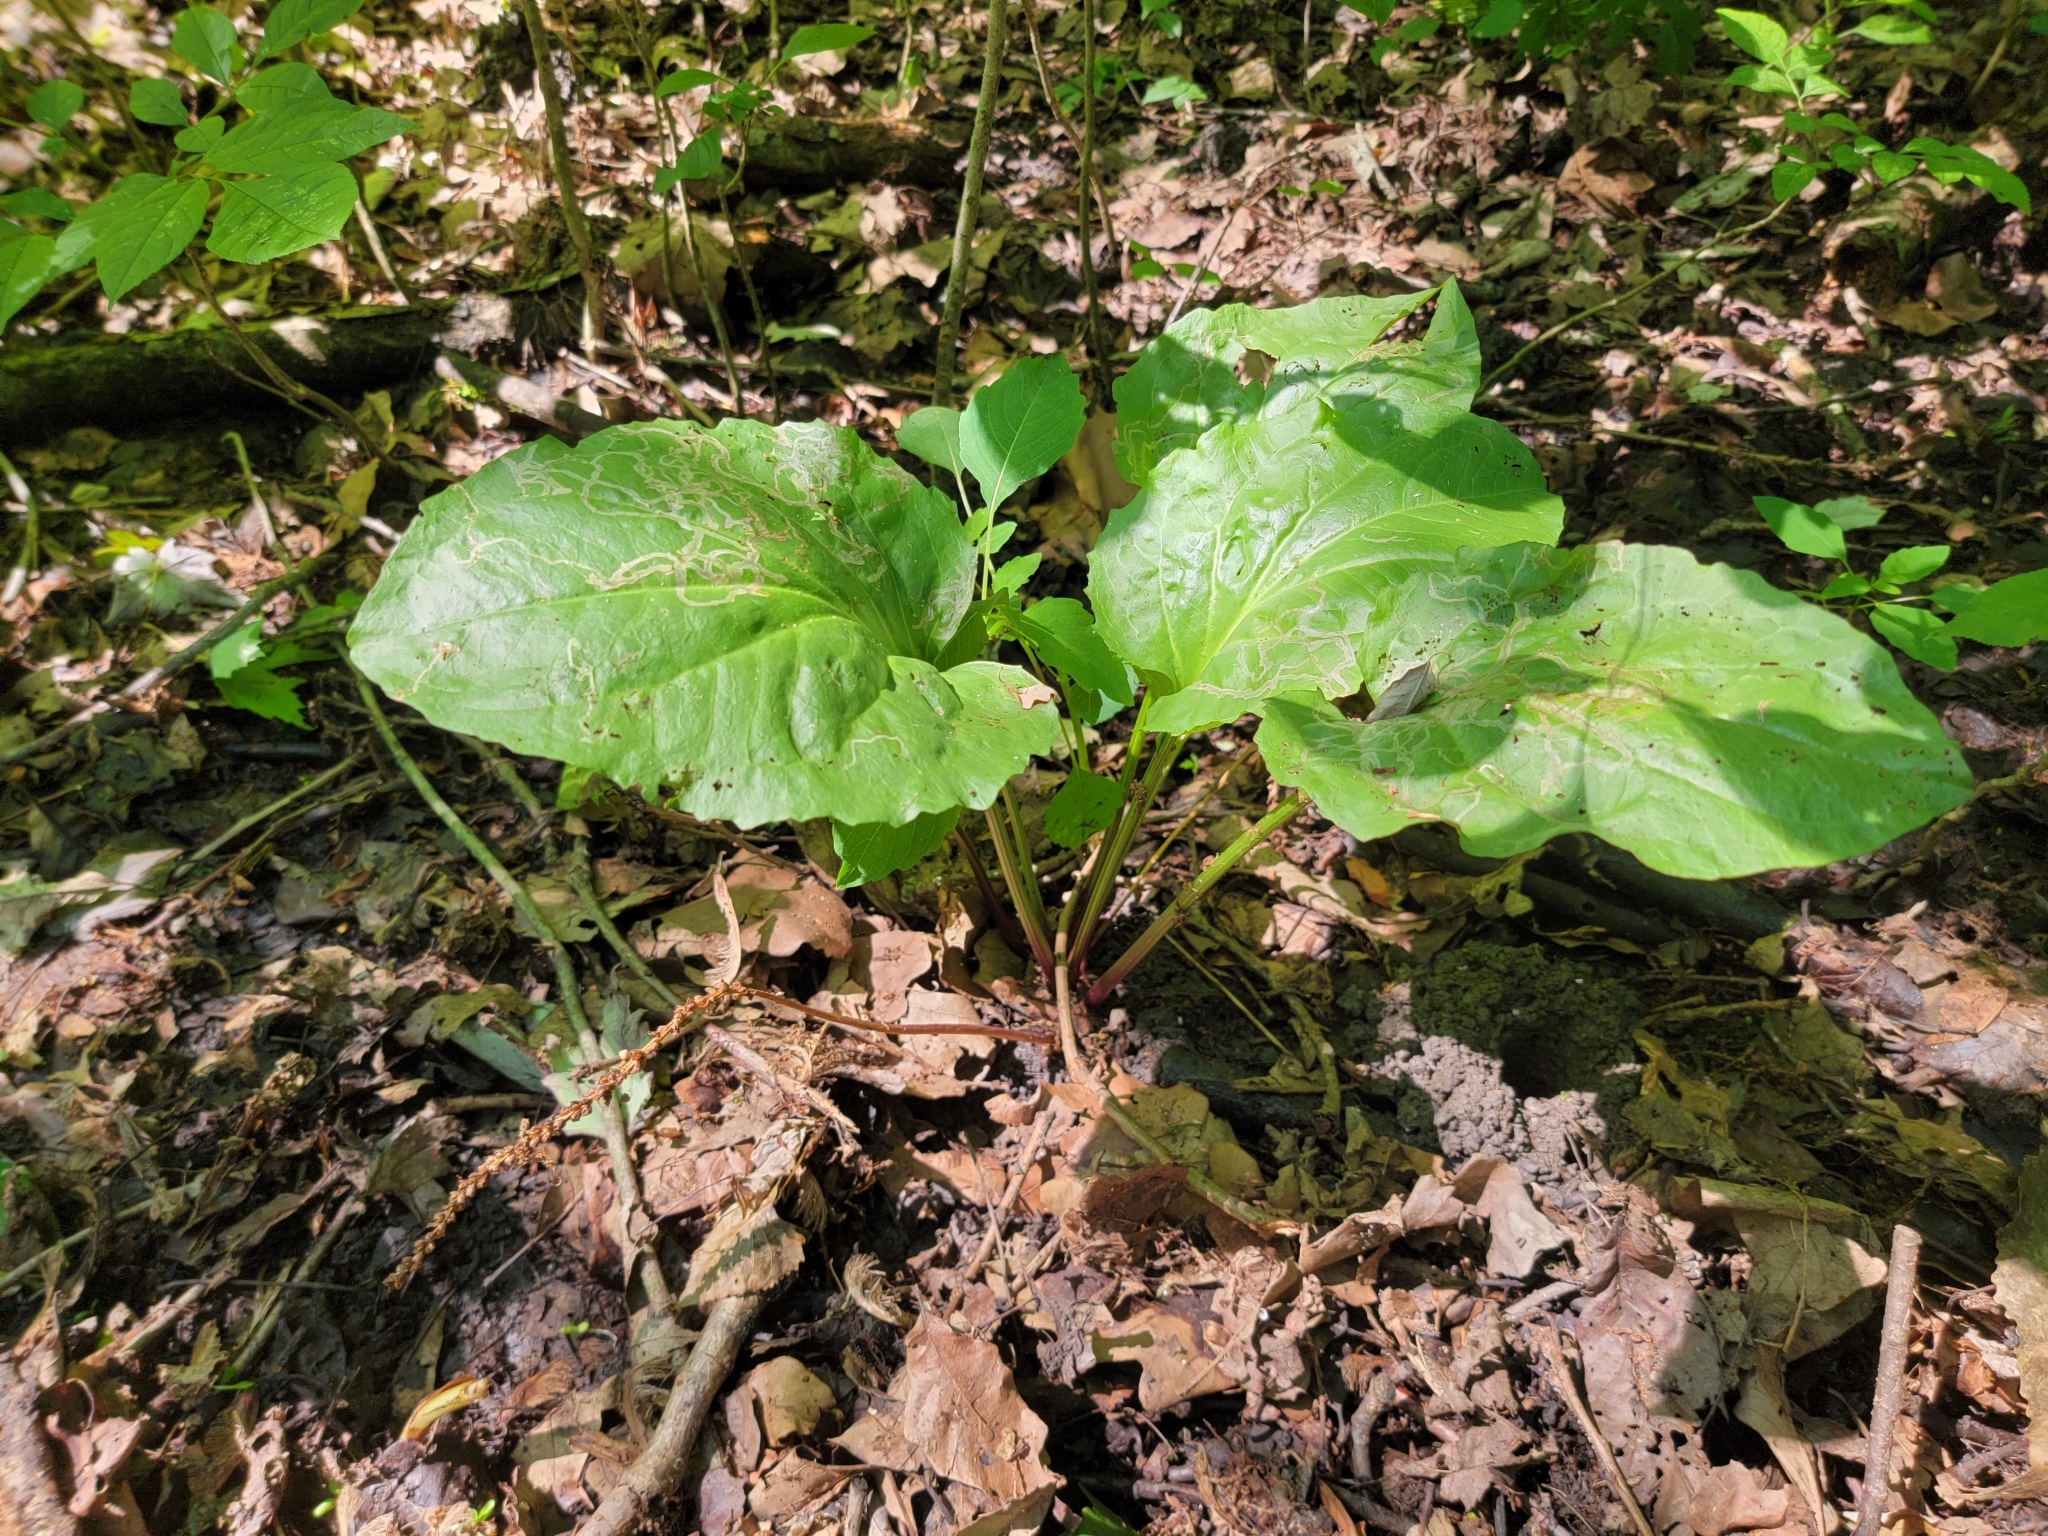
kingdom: Plantae
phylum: Tracheophyta
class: Magnoliopsida
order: Lamiales
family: Plantaginaceae
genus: Plantago
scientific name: Plantago cordata
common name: Kingroot
